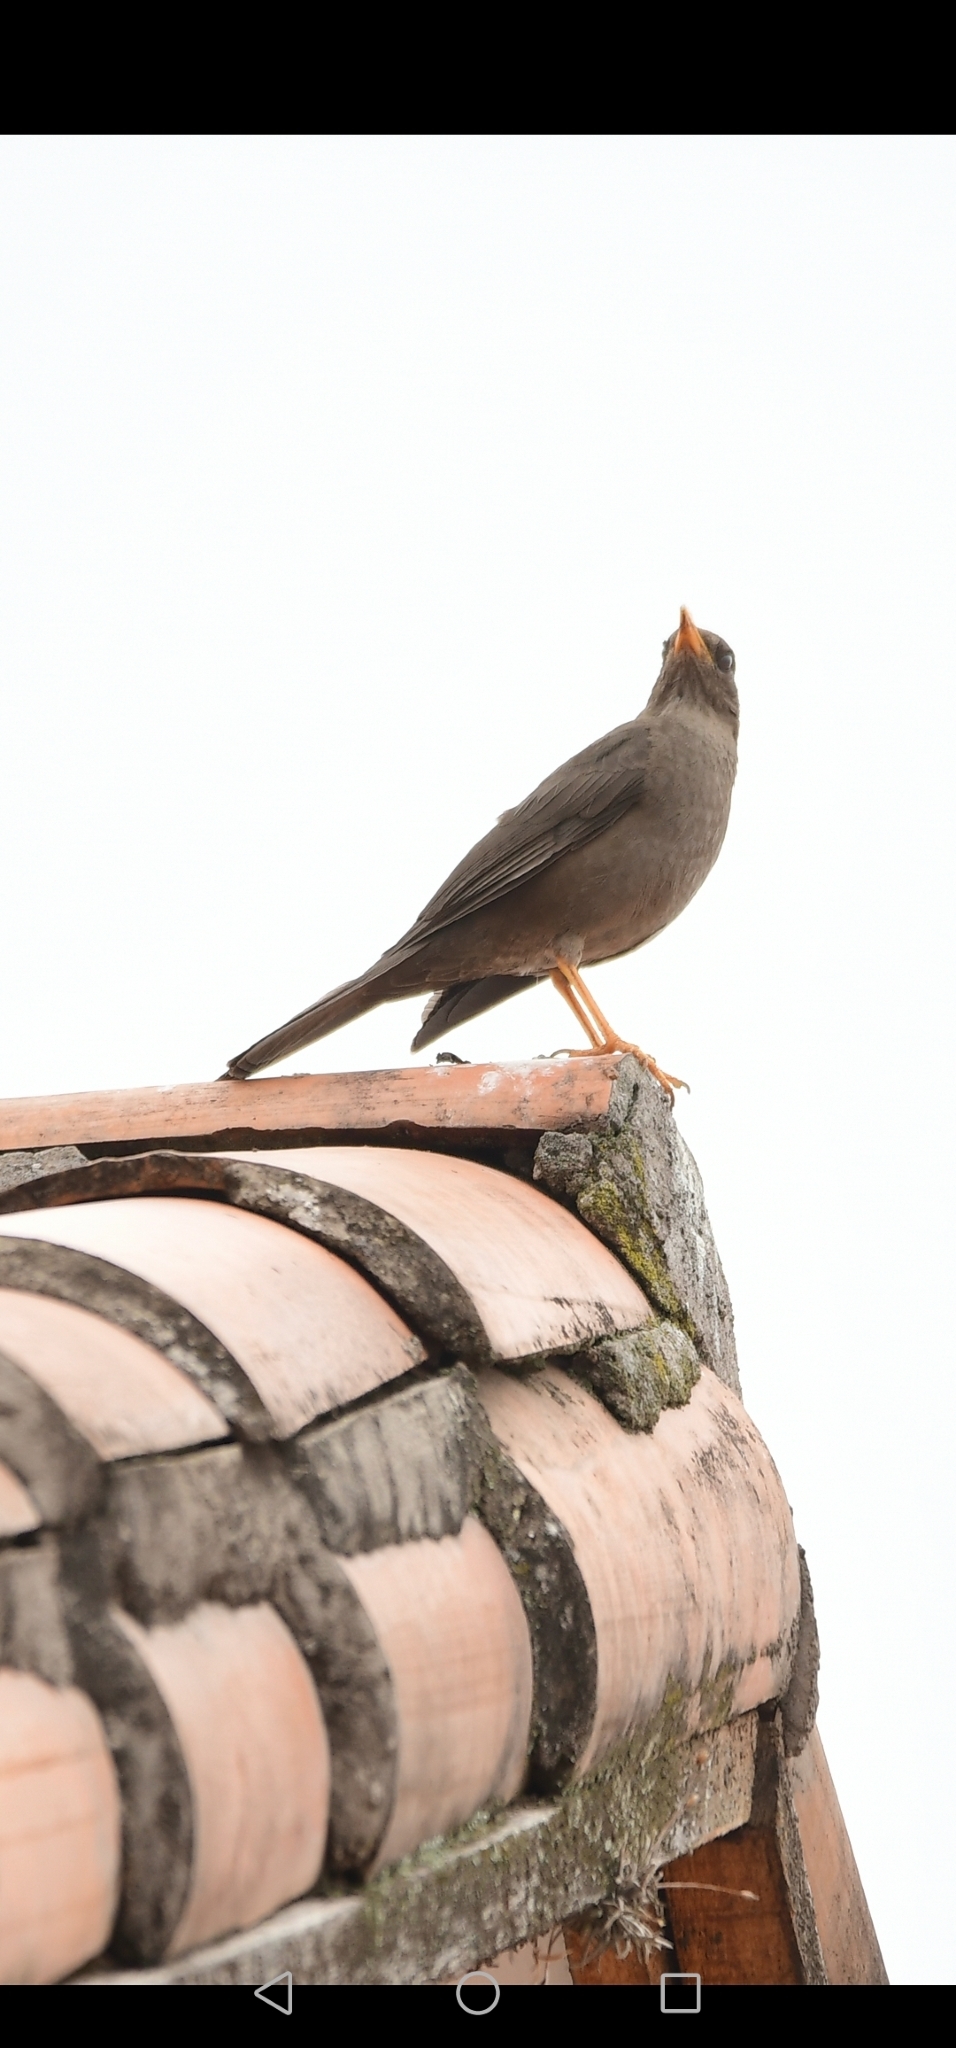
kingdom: Animalia
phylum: Chordata
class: Aves
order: Passeriformes
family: Turdidae
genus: Turdus
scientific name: Turdus chiguanco
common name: Chiguanco thrush
